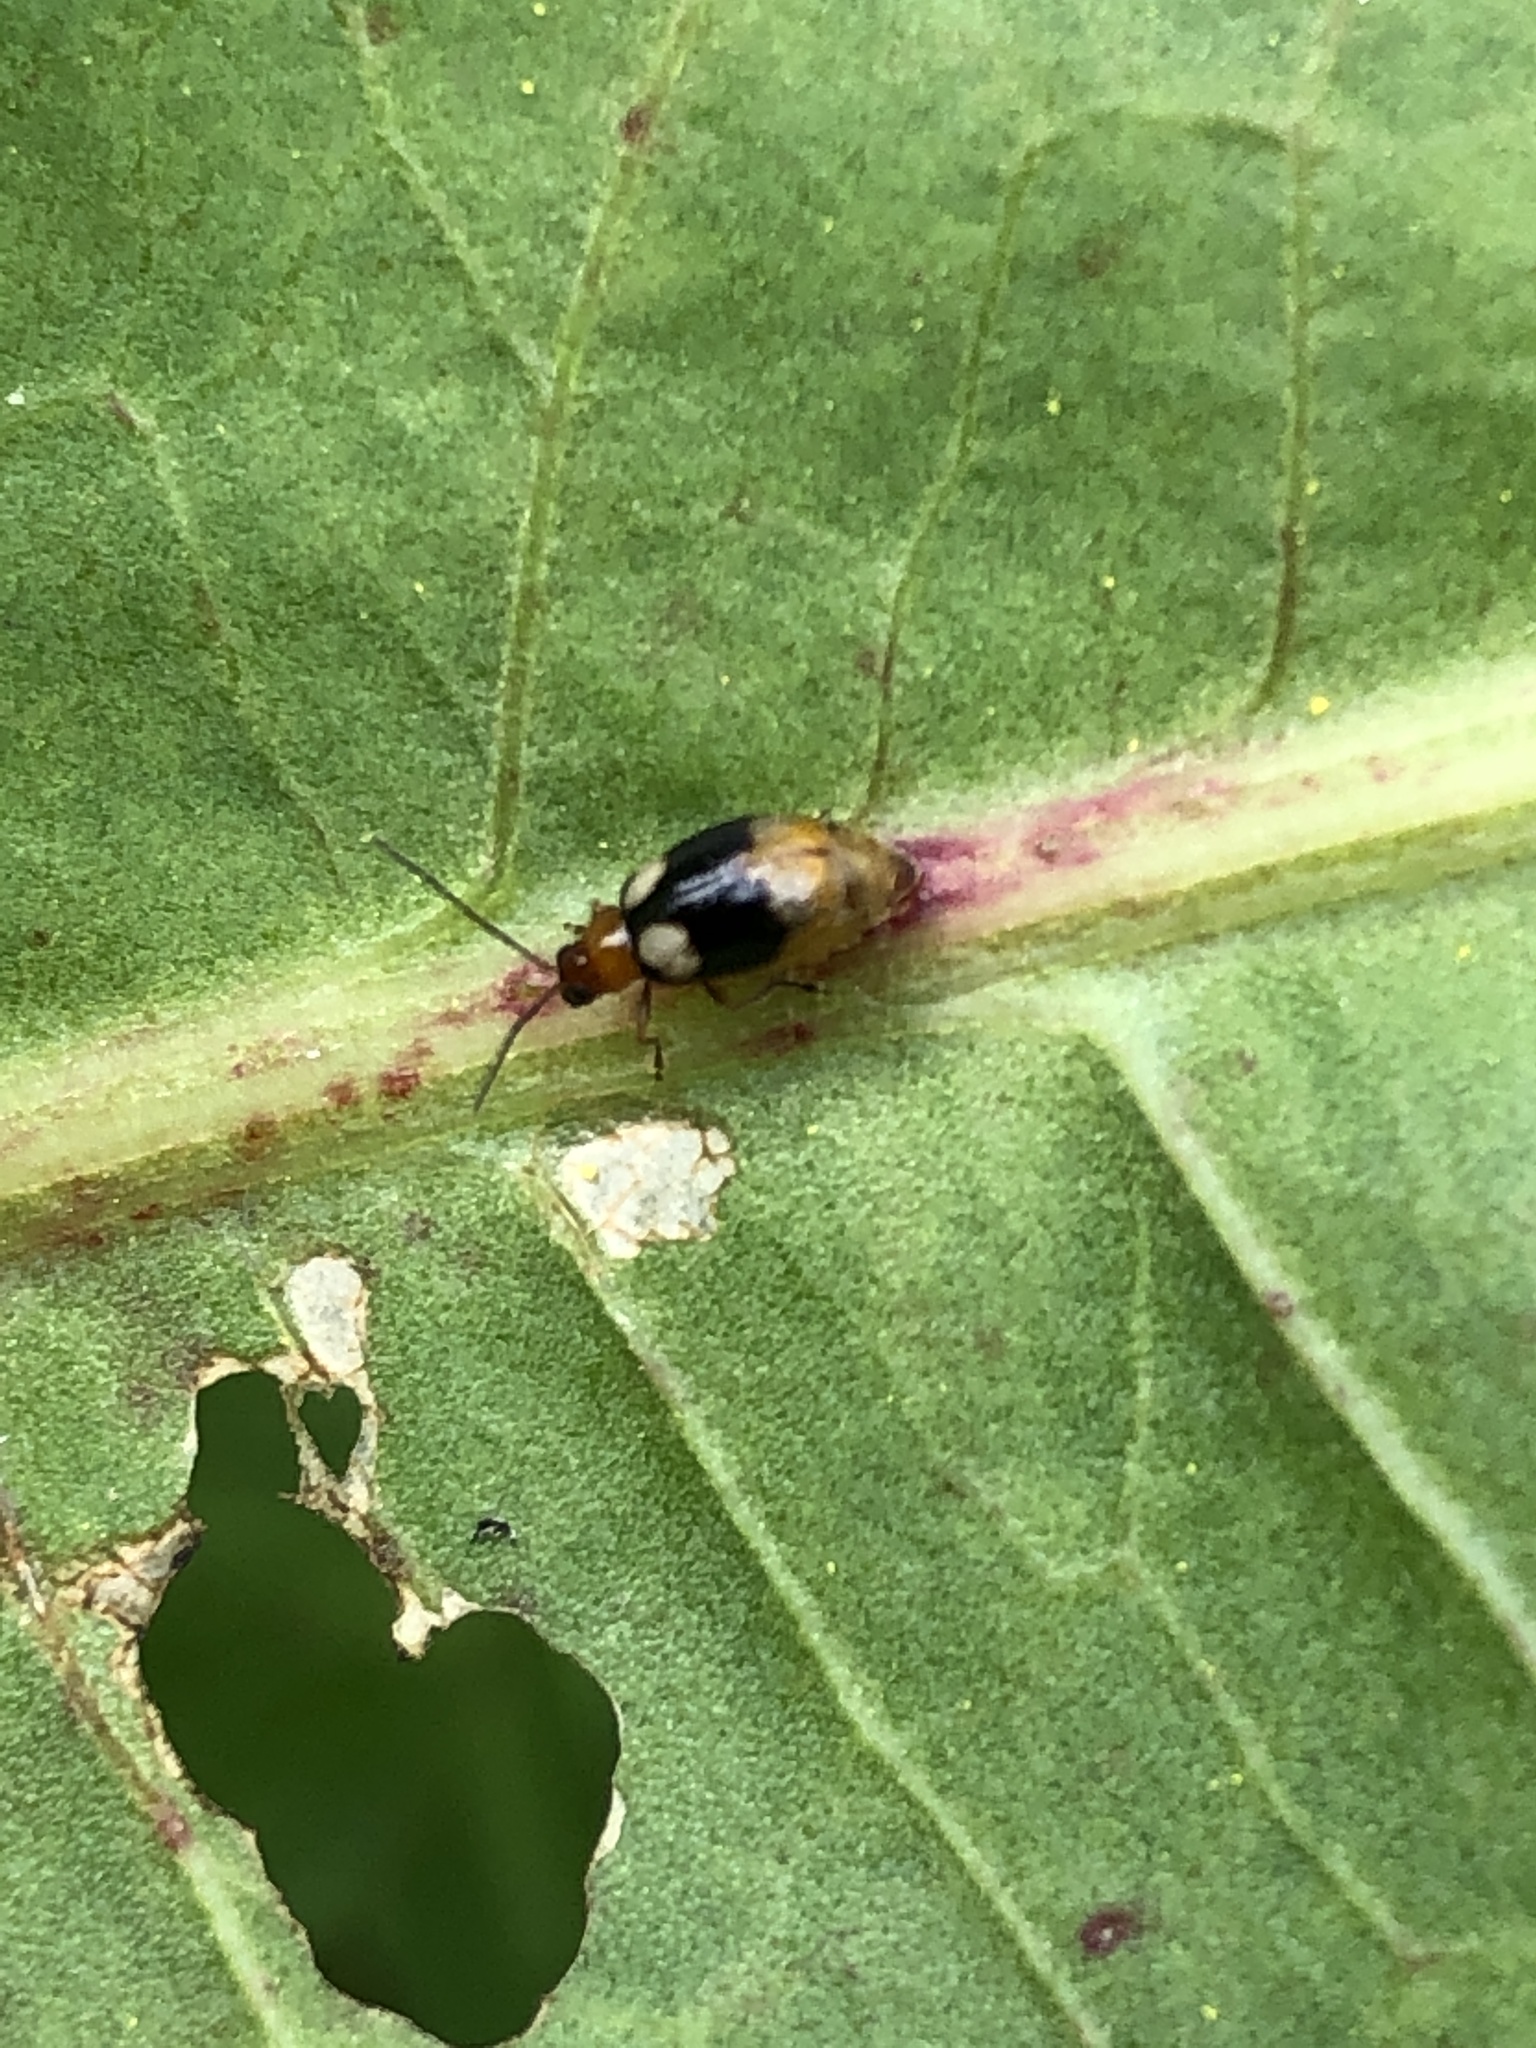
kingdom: Animalia
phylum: Arthropoda
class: Insecta
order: Coleoptera
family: Chrysomelidae
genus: Monolepta
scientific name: Monolepta quadriguttata
